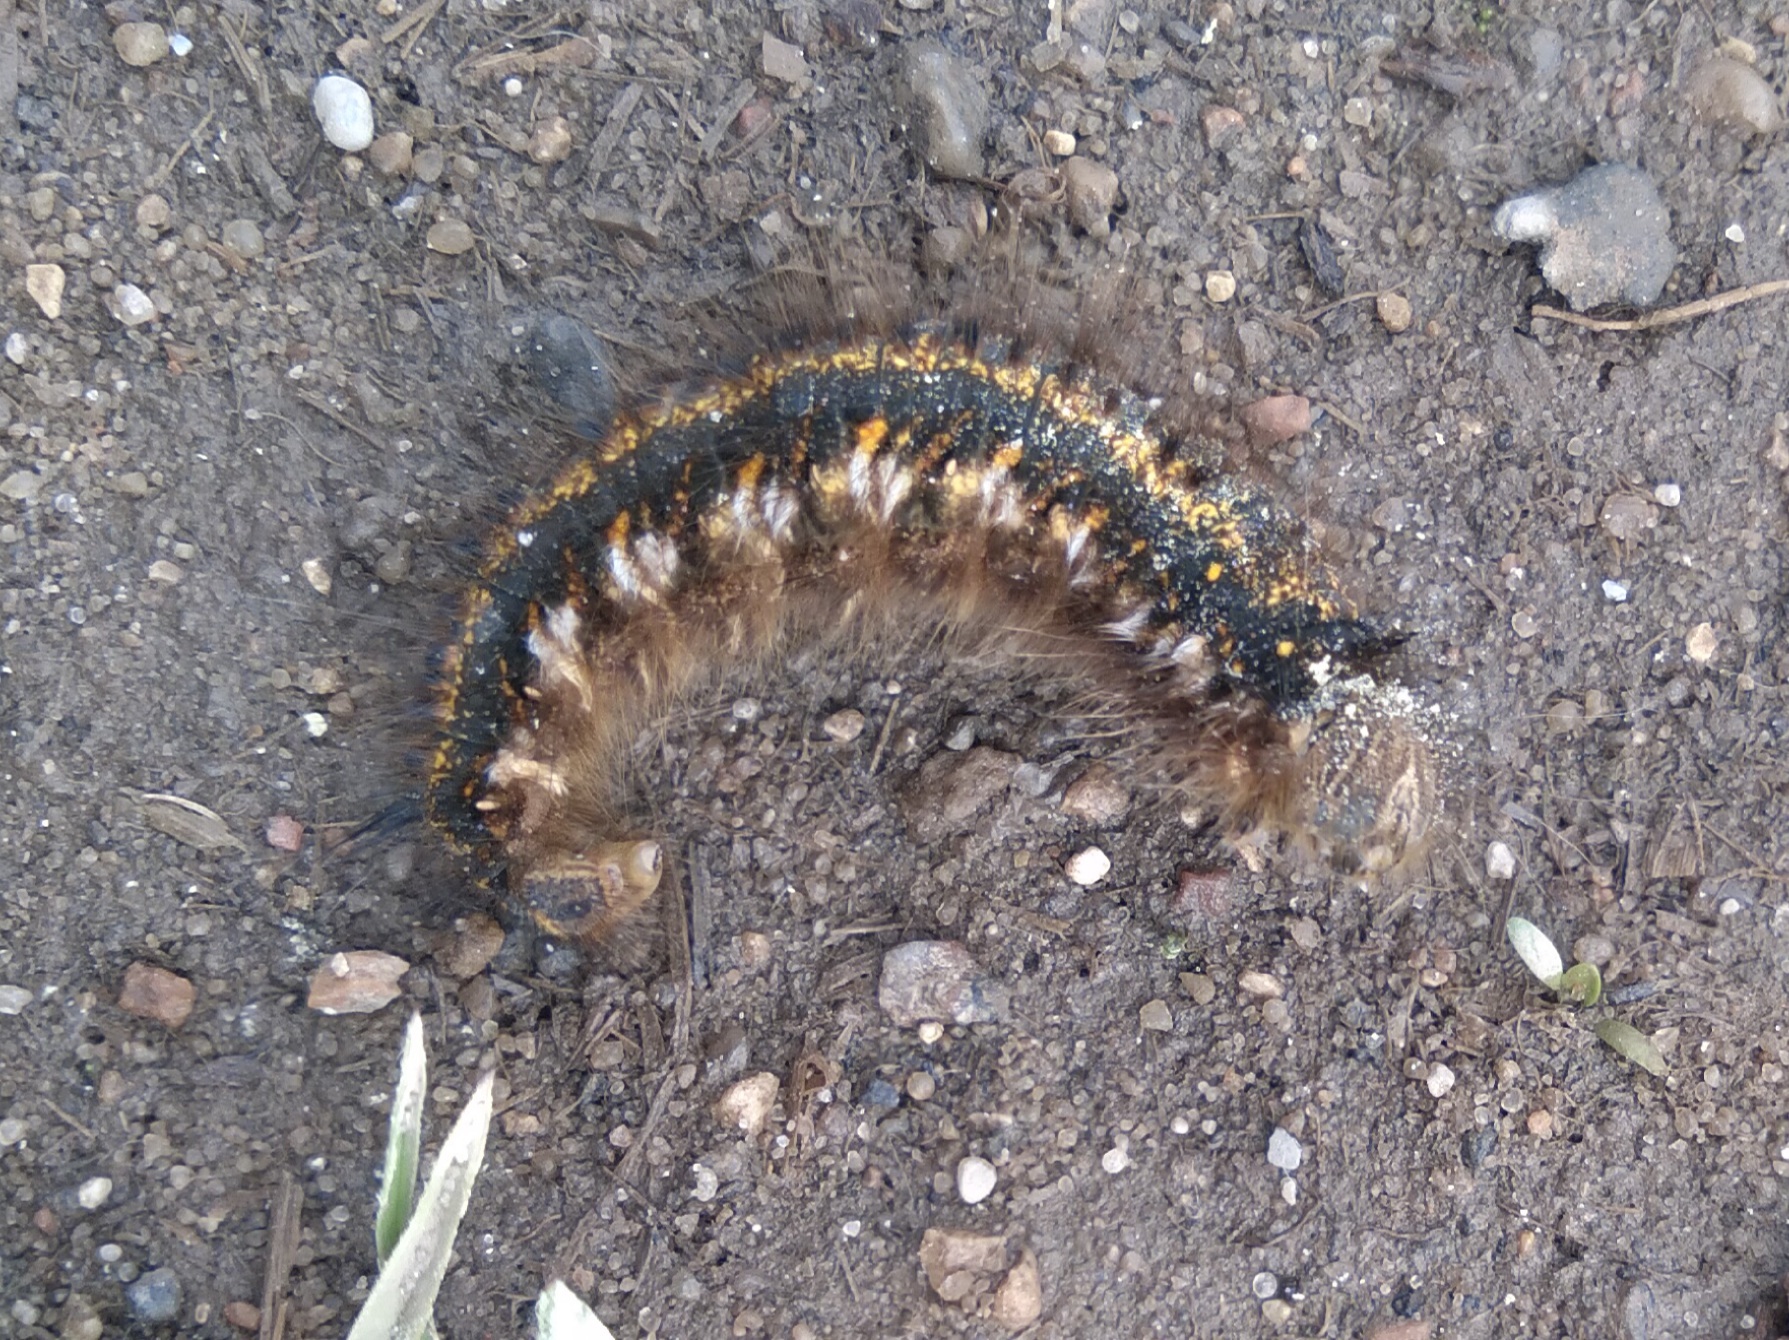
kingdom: Animalia
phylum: Arthropoda
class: Insecta
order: Lepidoptera
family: Lasiocampidae
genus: Euthrix
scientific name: Euthrix potatoria
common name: Drinker
